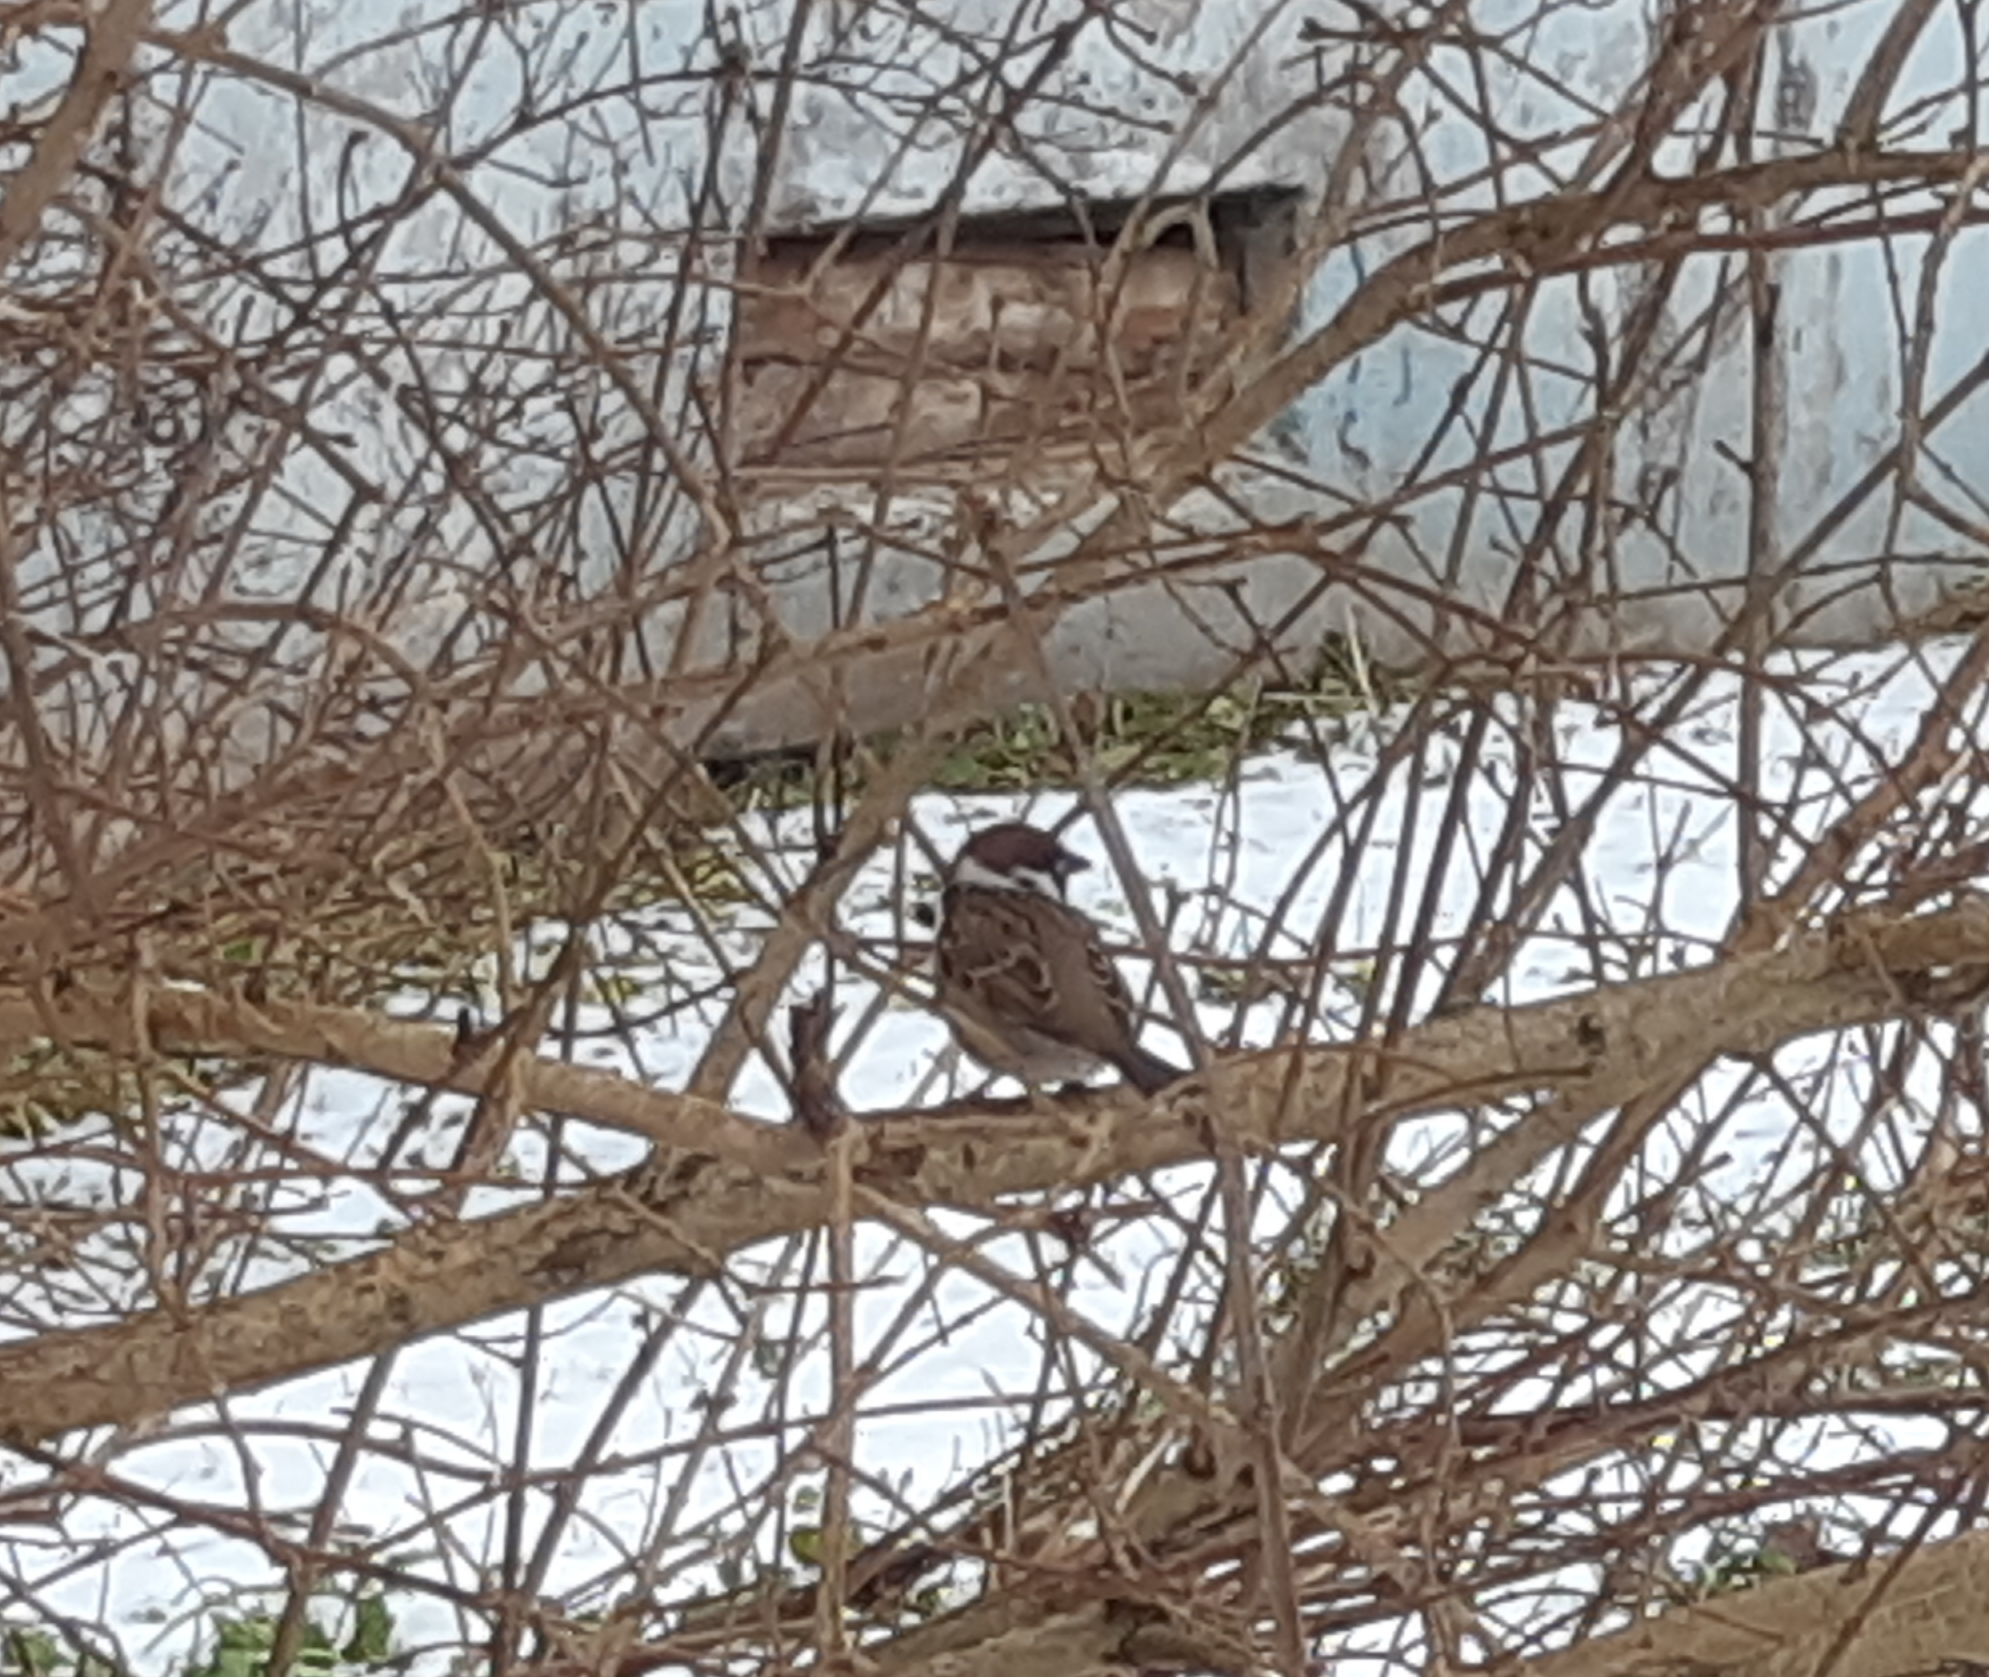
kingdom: Animalia
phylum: Chordata
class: Aves
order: Passeriformes
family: Passeridae
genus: Passer
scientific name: Passer montanus
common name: Eurasian tree sparrow
